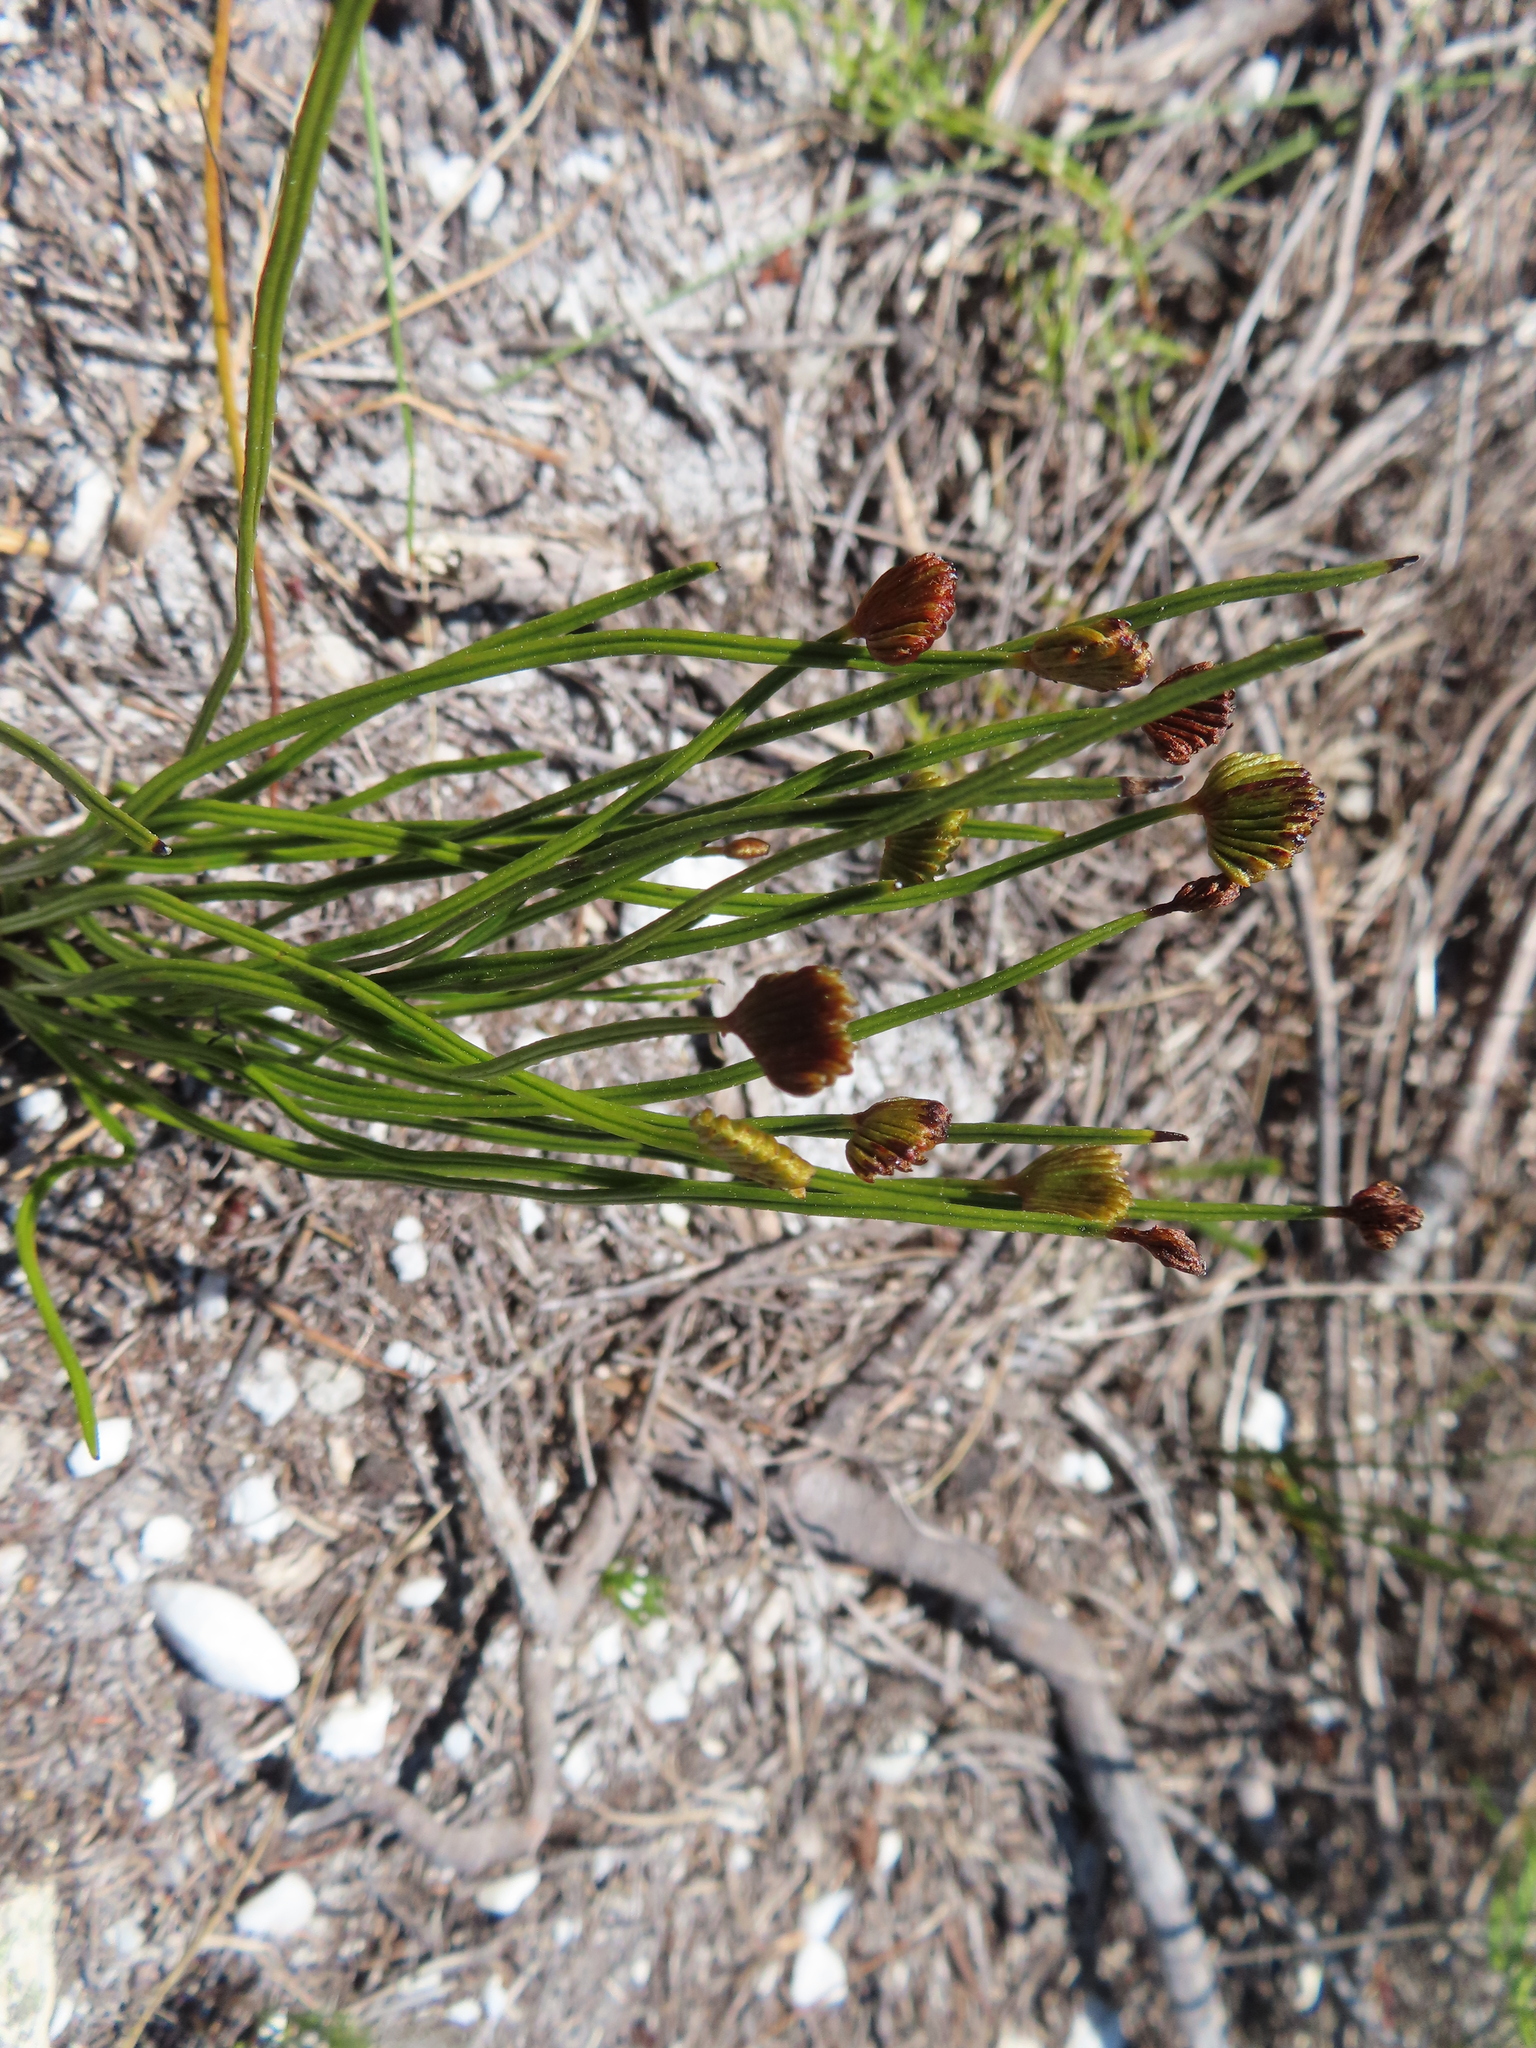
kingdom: Plantae
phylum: Tracheophyta
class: Polypodiopsida
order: Schizaeales
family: Schizaeaceae
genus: Schizaea
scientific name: Schizaea pectinata
